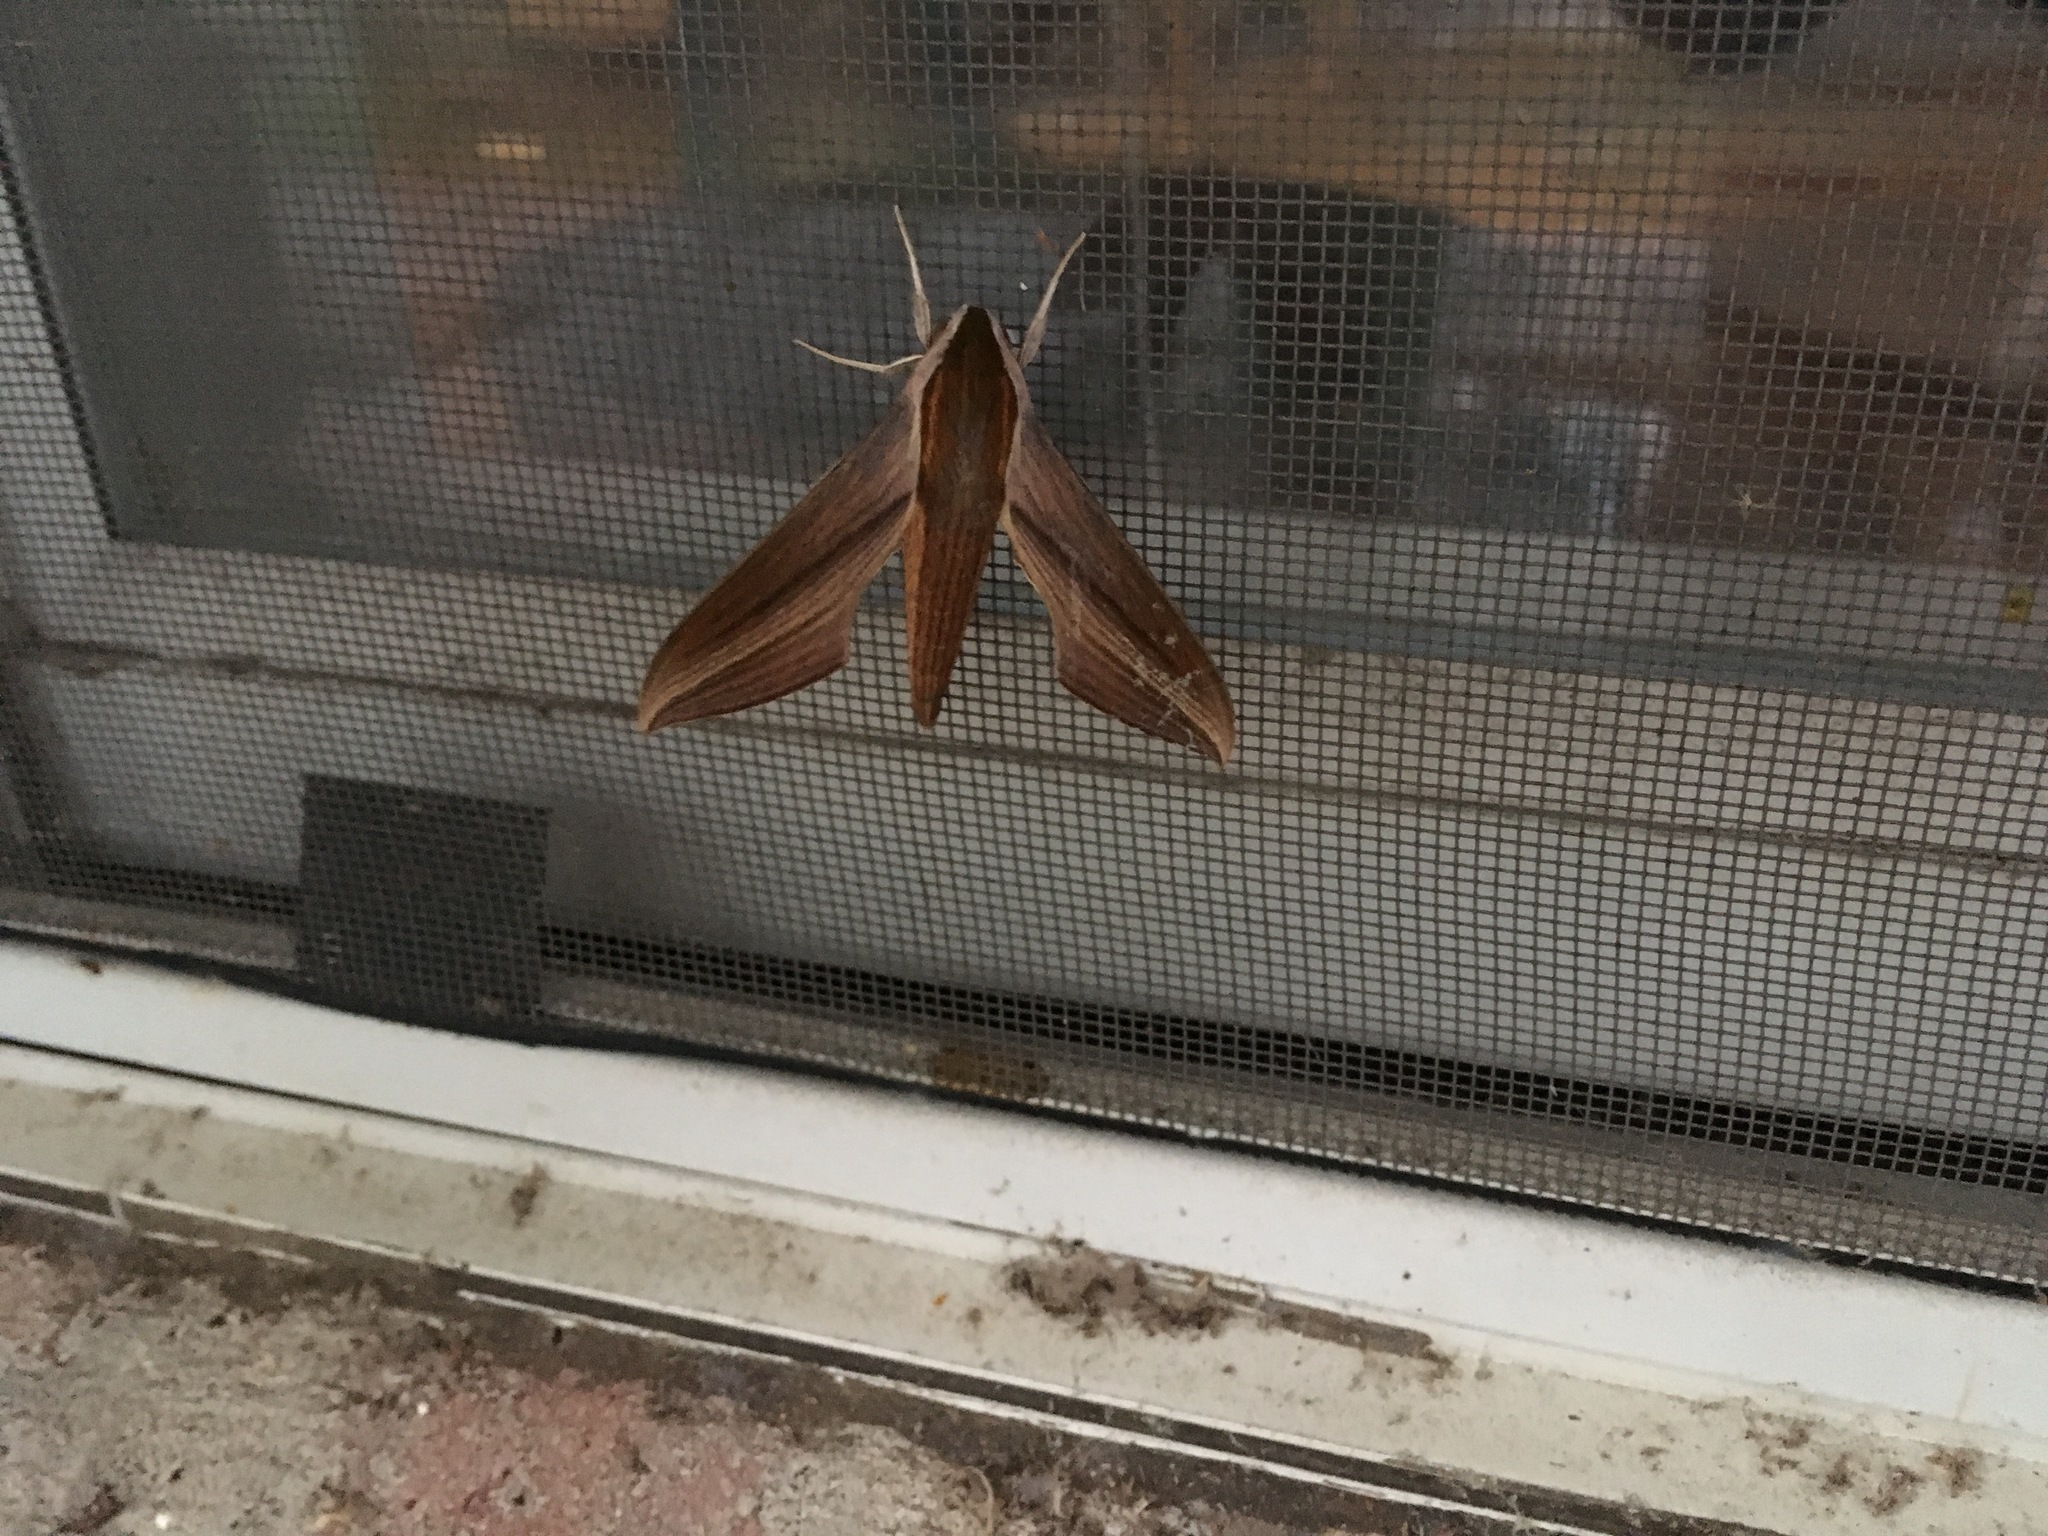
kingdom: Animalia
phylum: Arthropoda
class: Insecta
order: Lepidoptera
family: Sphingidae
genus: Xylophanes
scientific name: Xylophanes tersa
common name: Tersa sphinx
